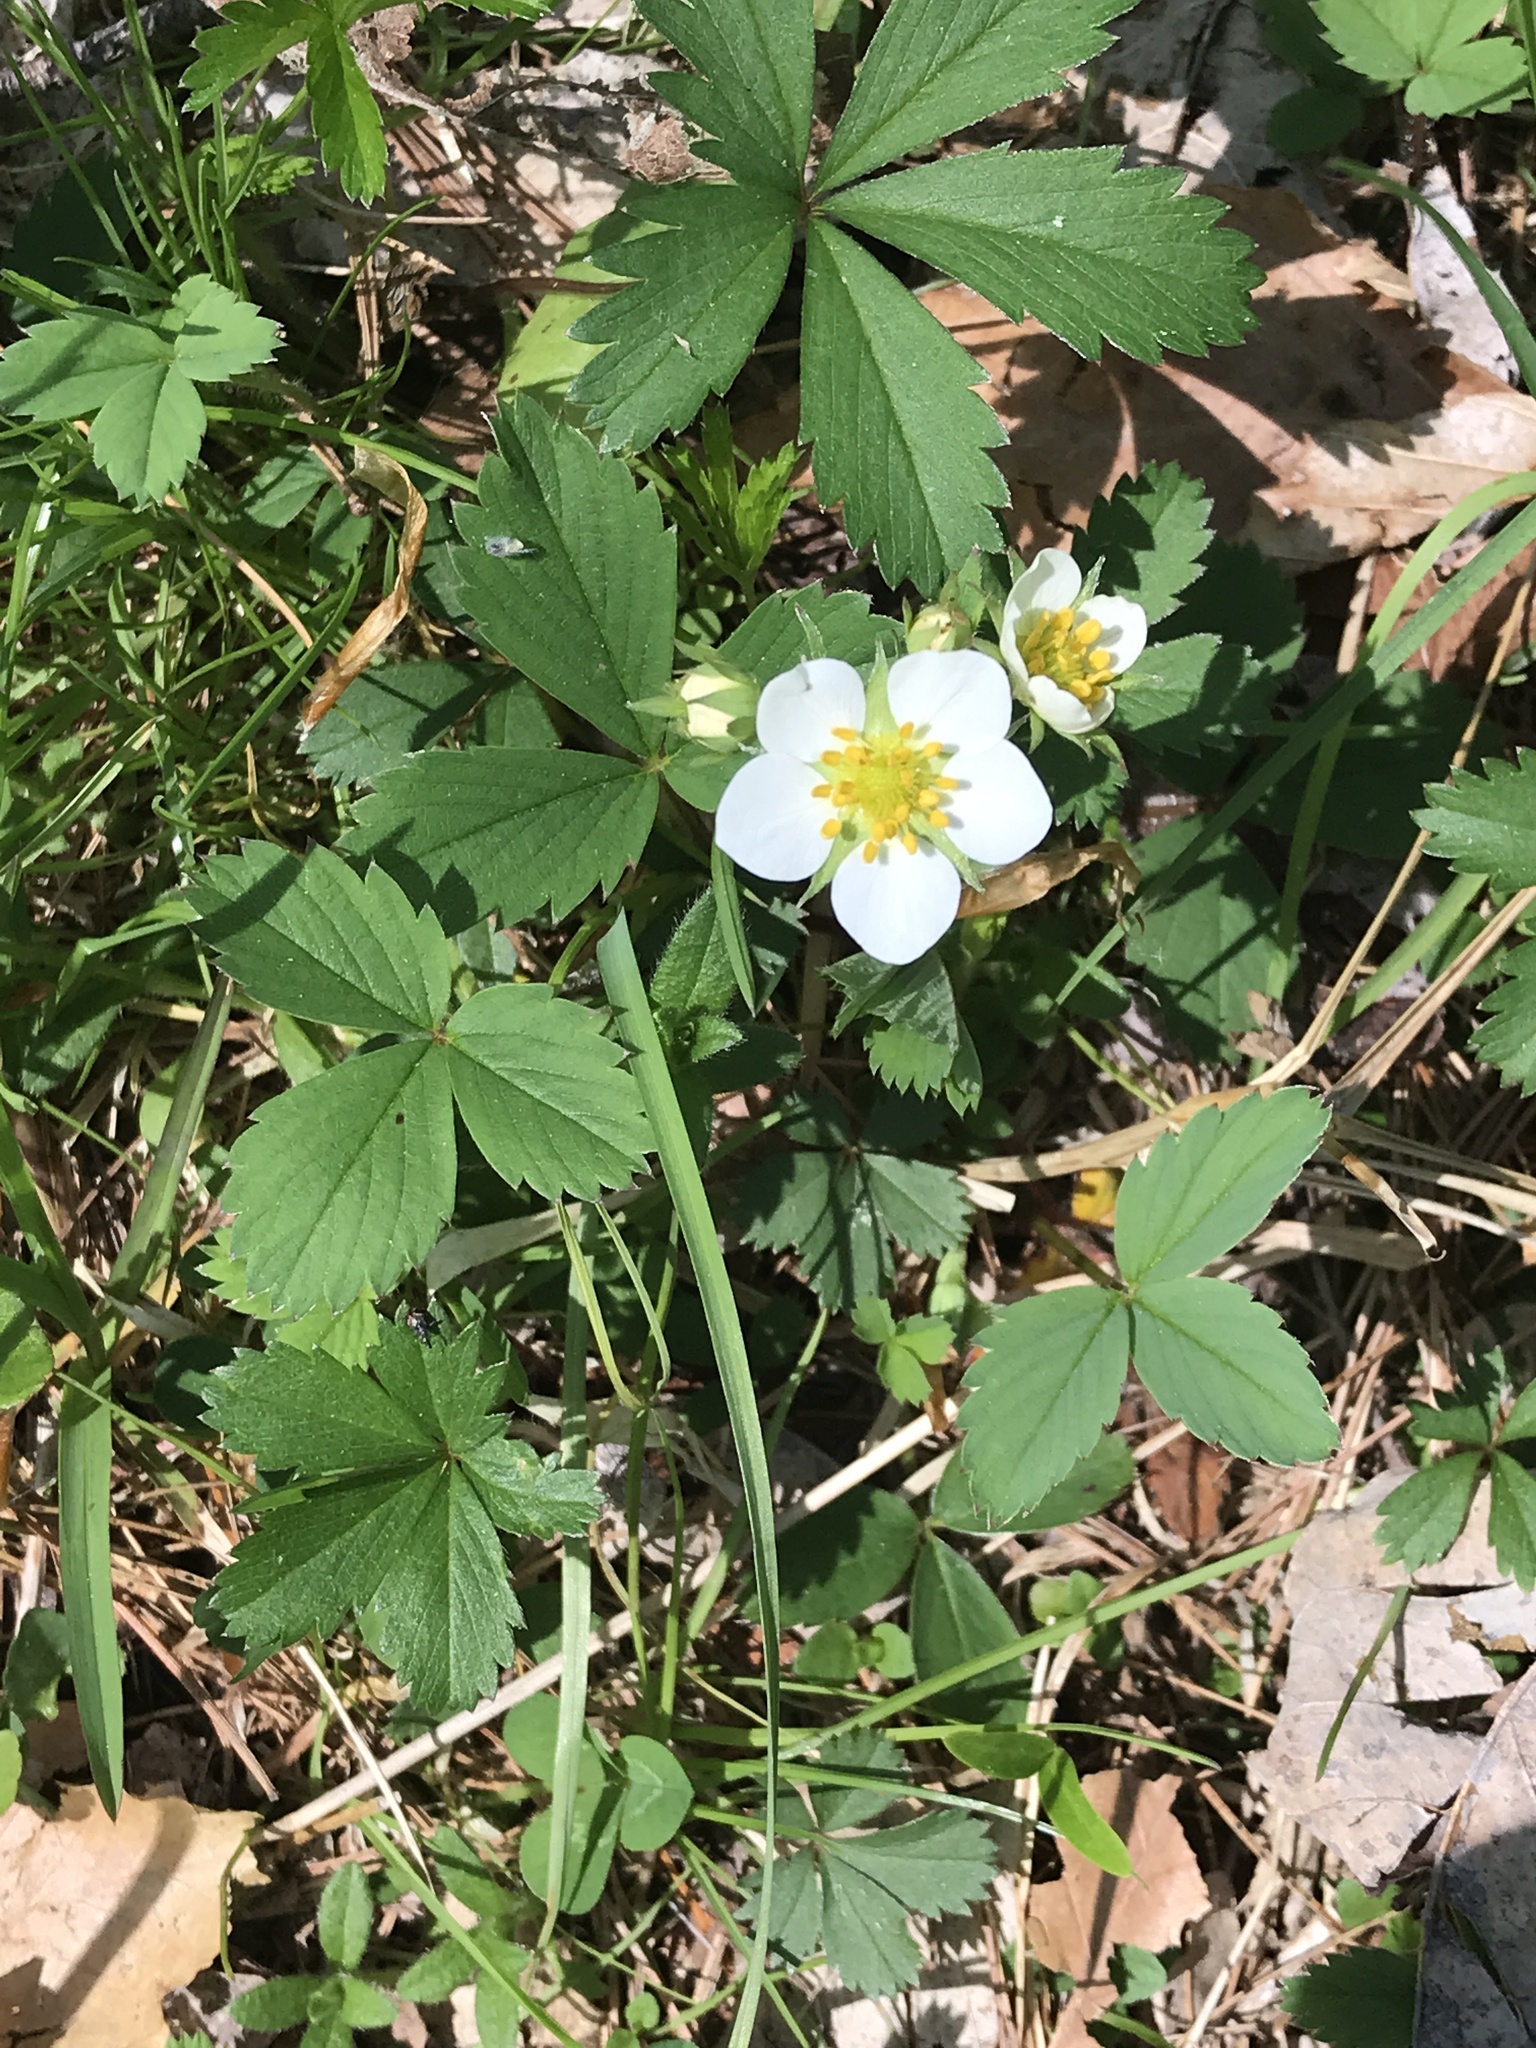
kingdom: Plantae
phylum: Tracheophyta
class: Magnoliopsida
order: Rosales
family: Rosaceae
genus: Fragaria
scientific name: Fragaria virginiana
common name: Thickleaved wild strawberry
